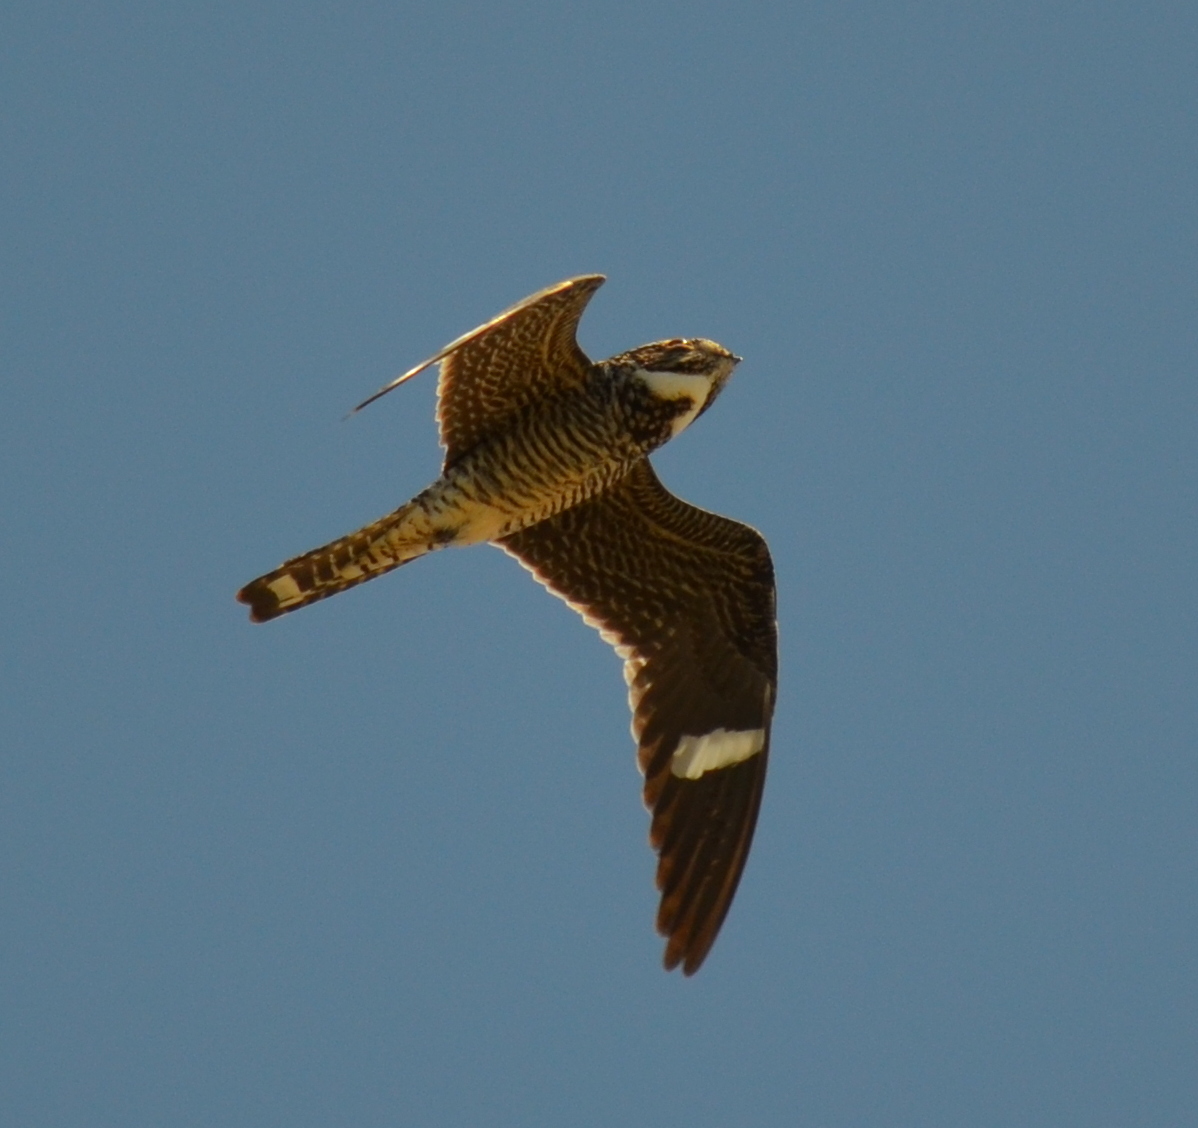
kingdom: Animalia
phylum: Chordata
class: Aves
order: Caprimulgiformes
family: Caprimulgidae
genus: Chordeiles
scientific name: Chordeiles minor
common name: Common nighthawk
